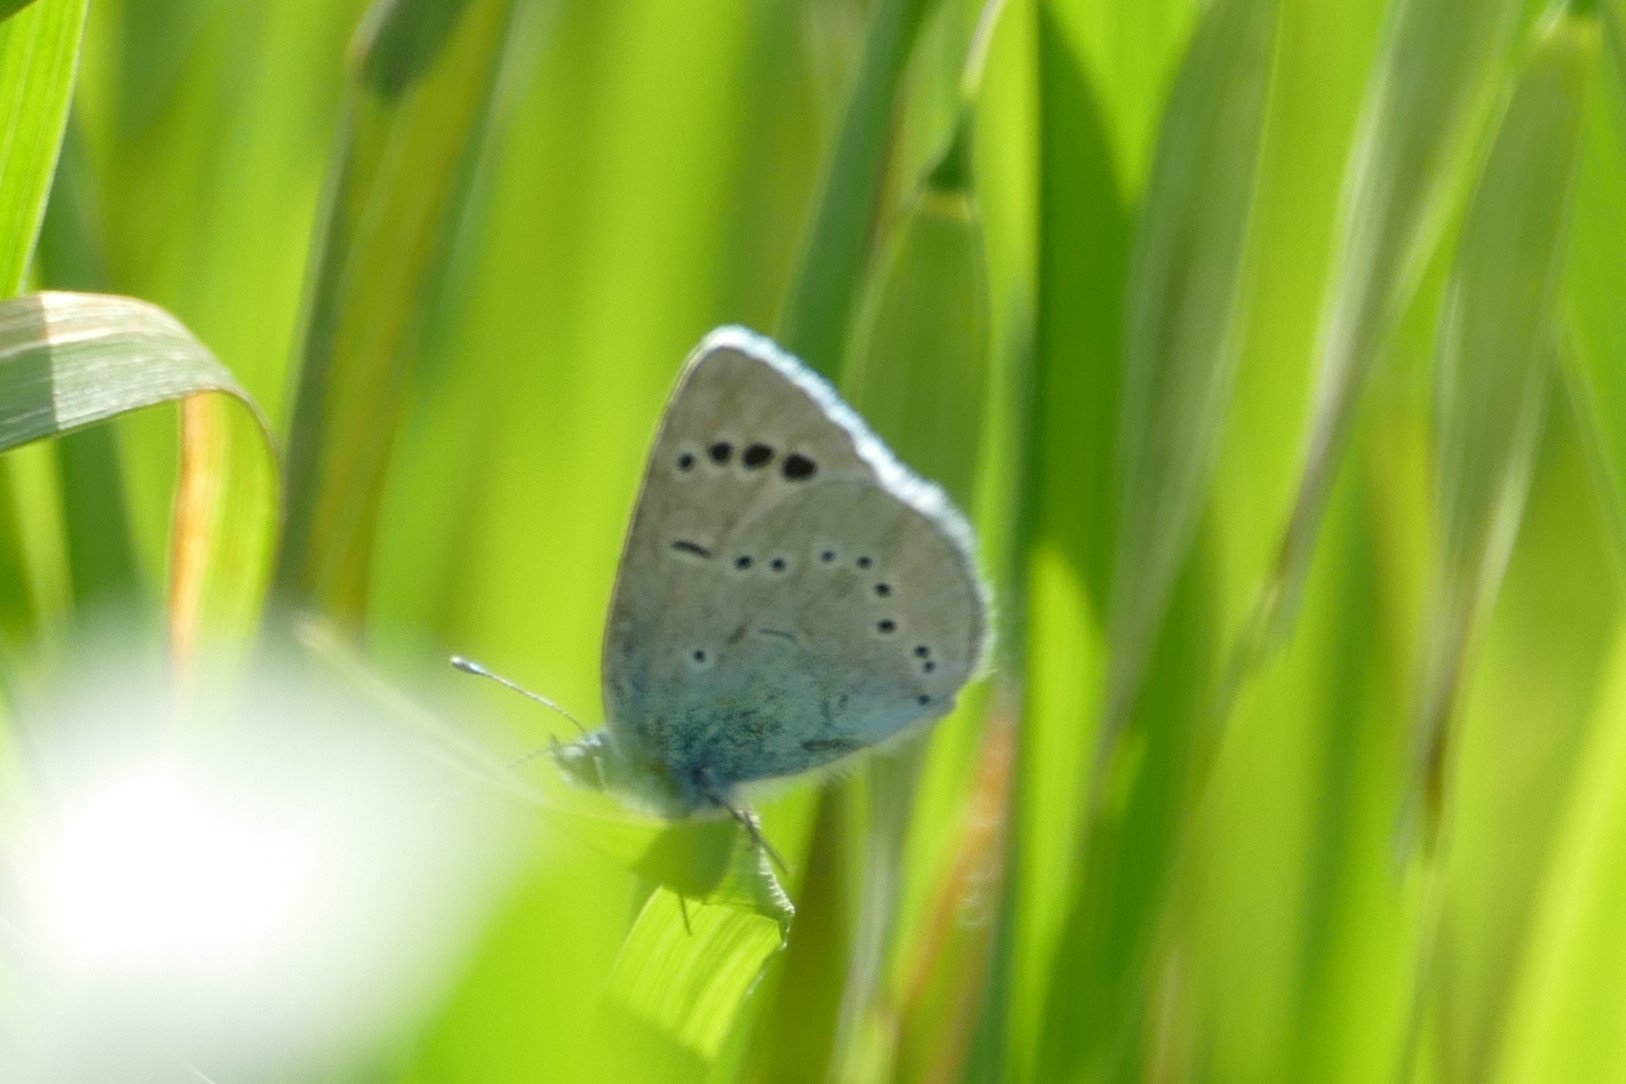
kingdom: Animalia
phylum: Arthropoda
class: Insecta
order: Lepidoptera
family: Lycaenidae
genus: Glaucopsyche
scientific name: Glaucopsyche alexis
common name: Green-underside blue
